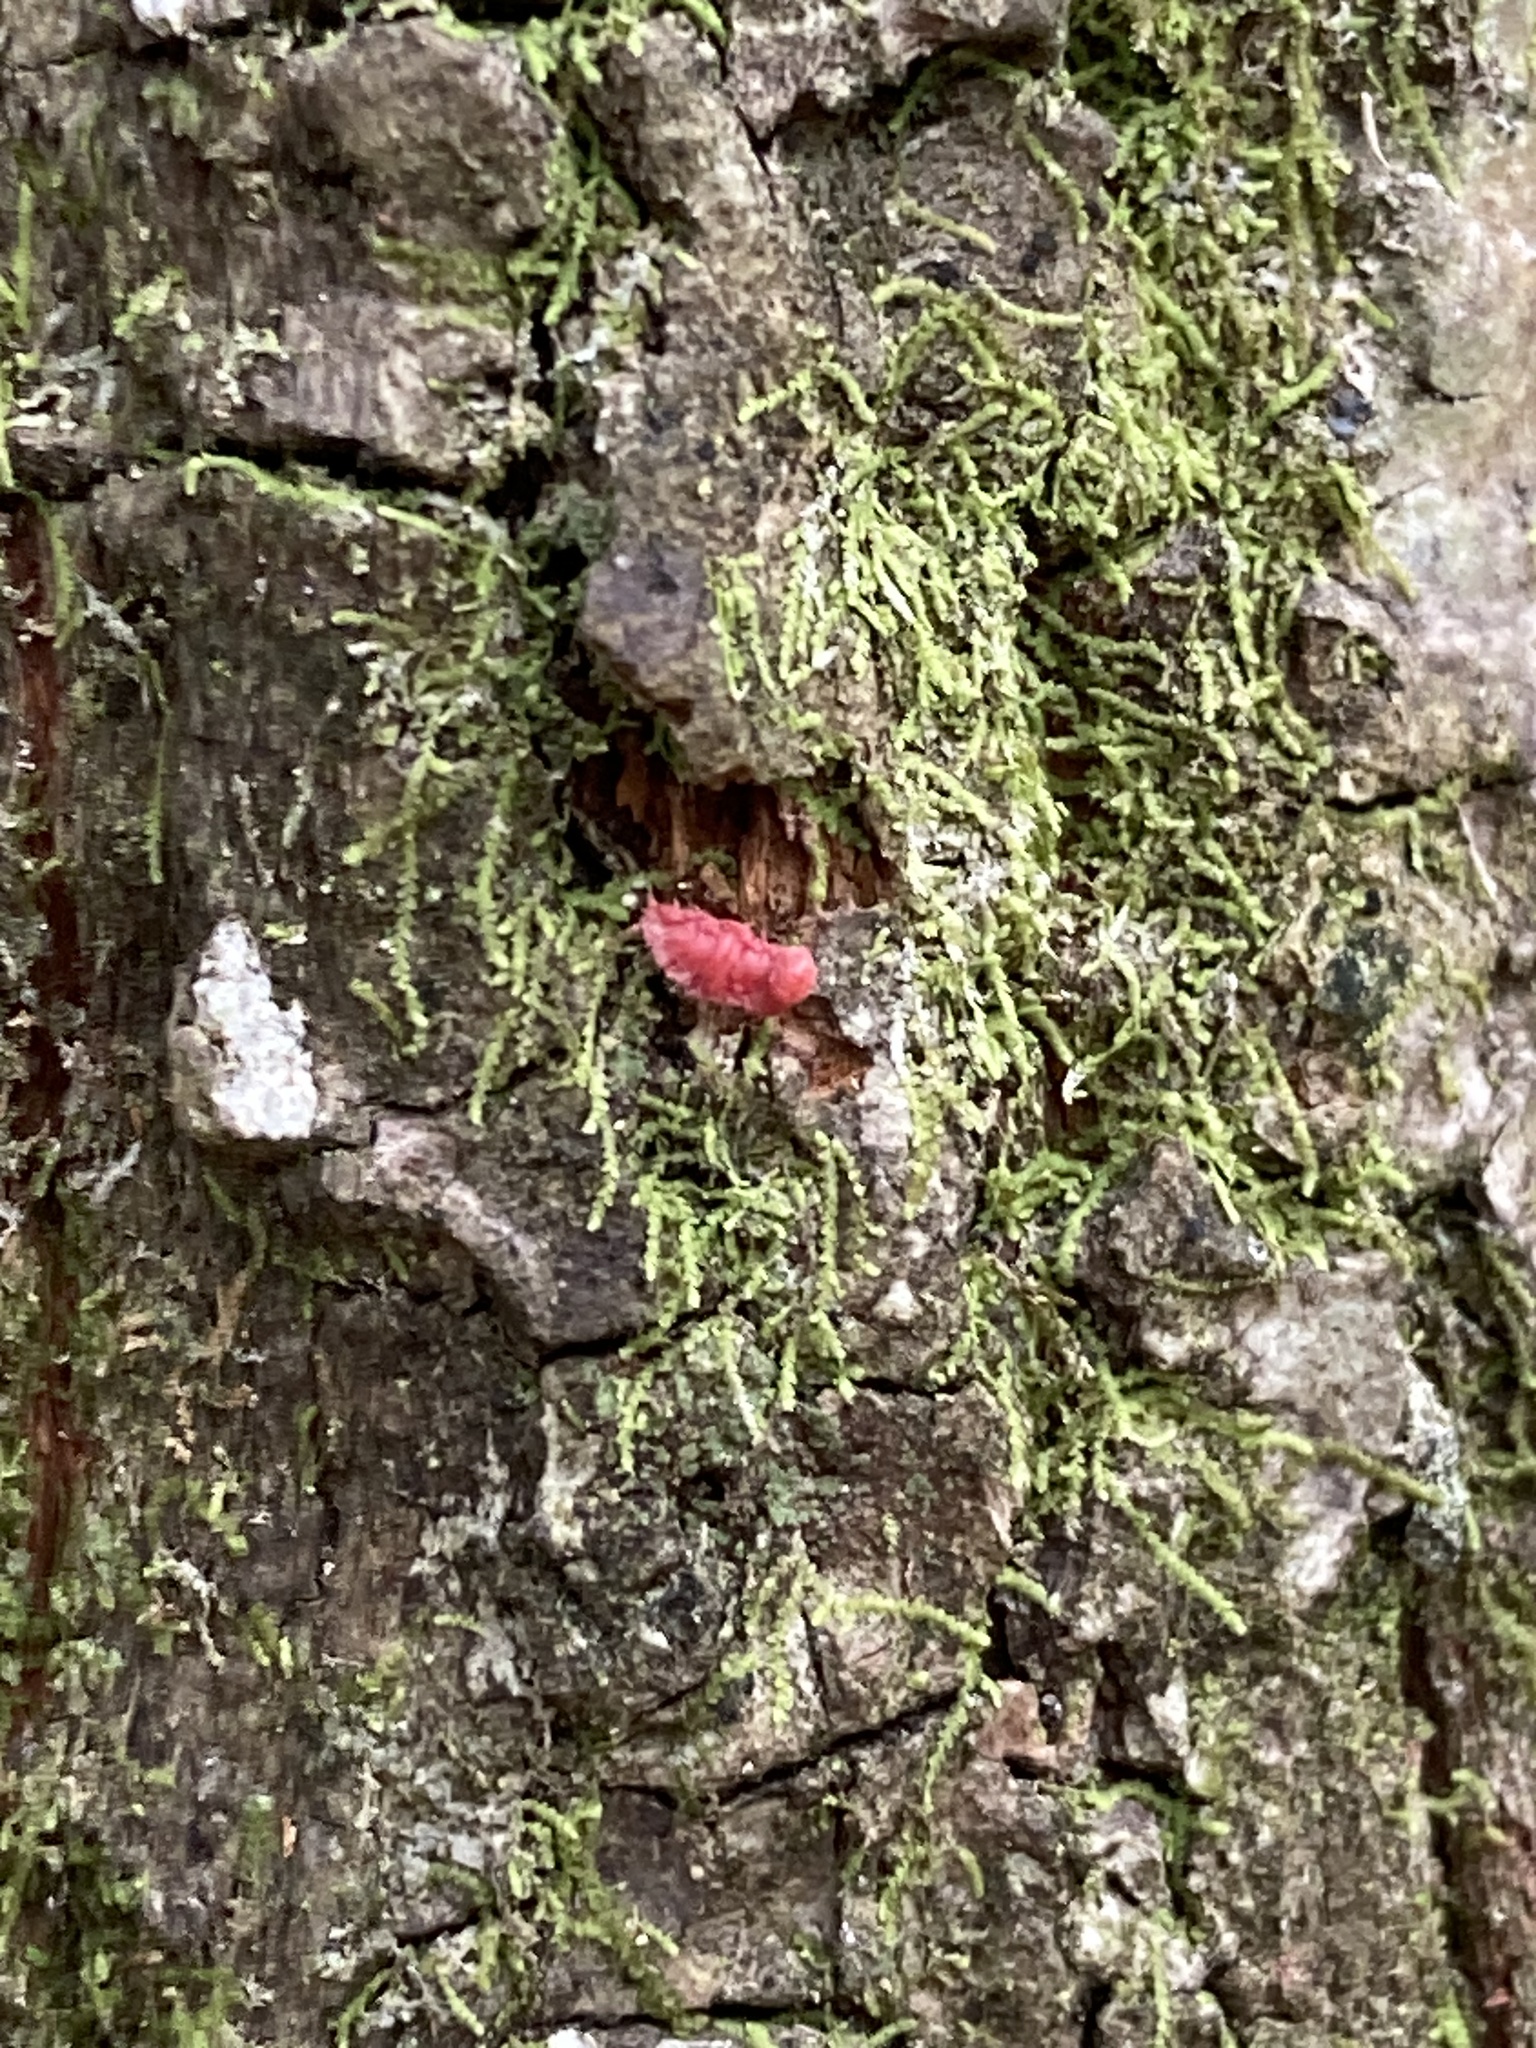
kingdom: Animalia
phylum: Arthropoda
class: Insecta
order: Hemiptera
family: Margarodidae
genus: Neosteingelia
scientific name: Neosteingelia texana
